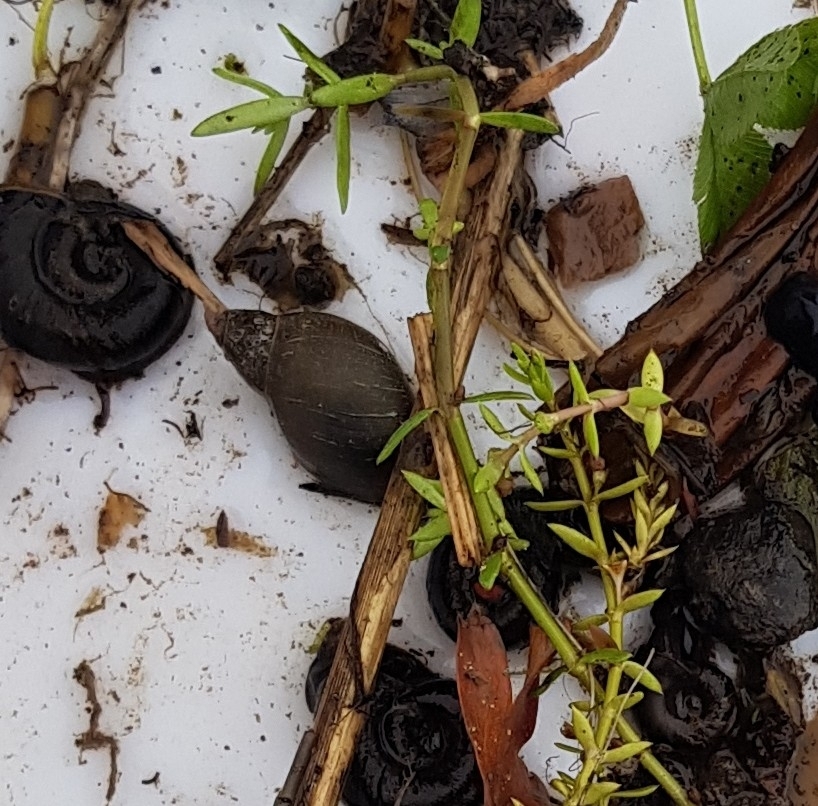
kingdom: Animalia
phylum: Mollusca
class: Gastropoda
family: Lymnaeidae
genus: Lymnaea
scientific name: Lymnaea stagnalis
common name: Great pond snail
